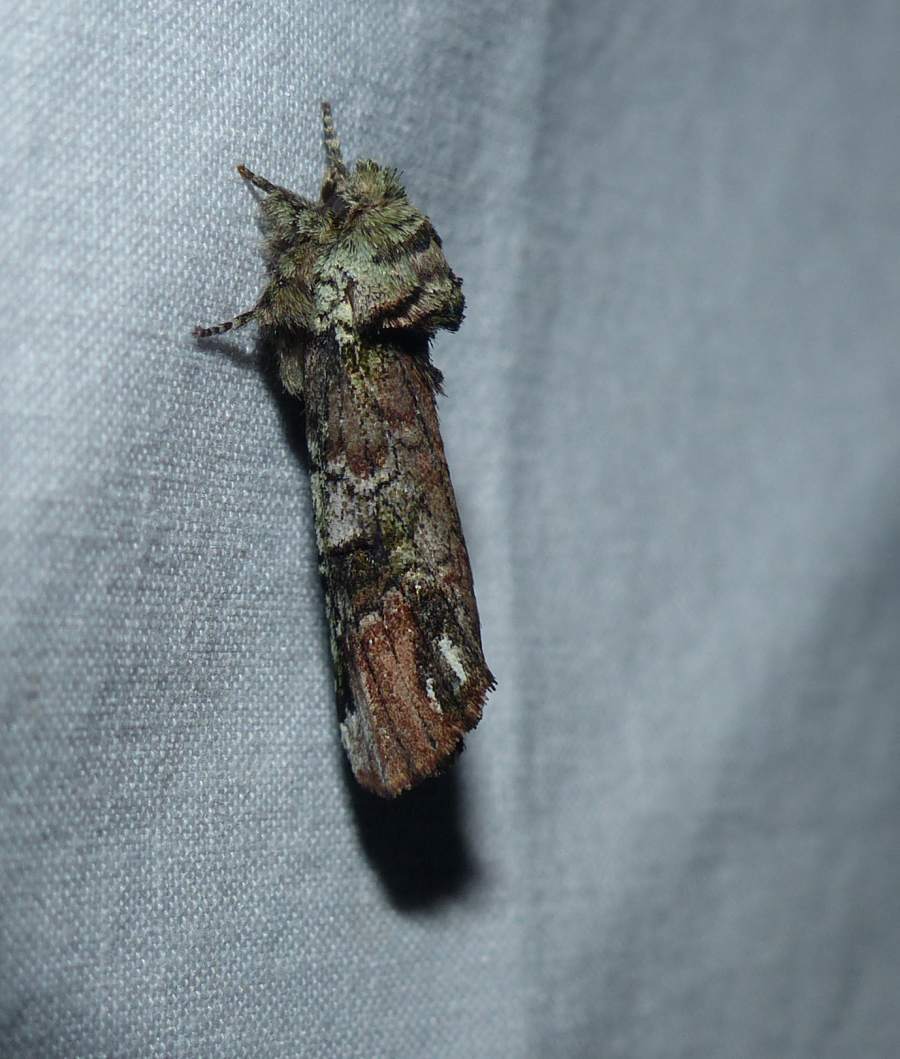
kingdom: Animalia
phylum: Arthropoda
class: Insecta
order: Lepidoptera
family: Notodontidae
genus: Schizura
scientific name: Schizura
